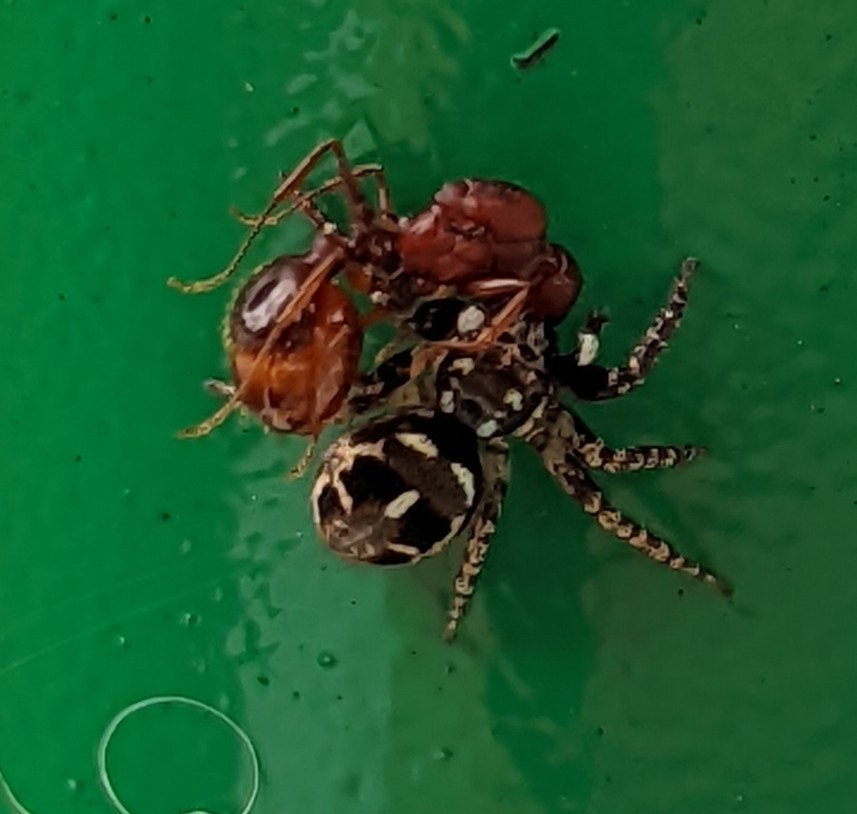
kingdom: Animalia
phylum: Arthropoda
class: Arachnida
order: Araneae
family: Salticidae
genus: Anasaitis
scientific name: Anasaitis canosa
